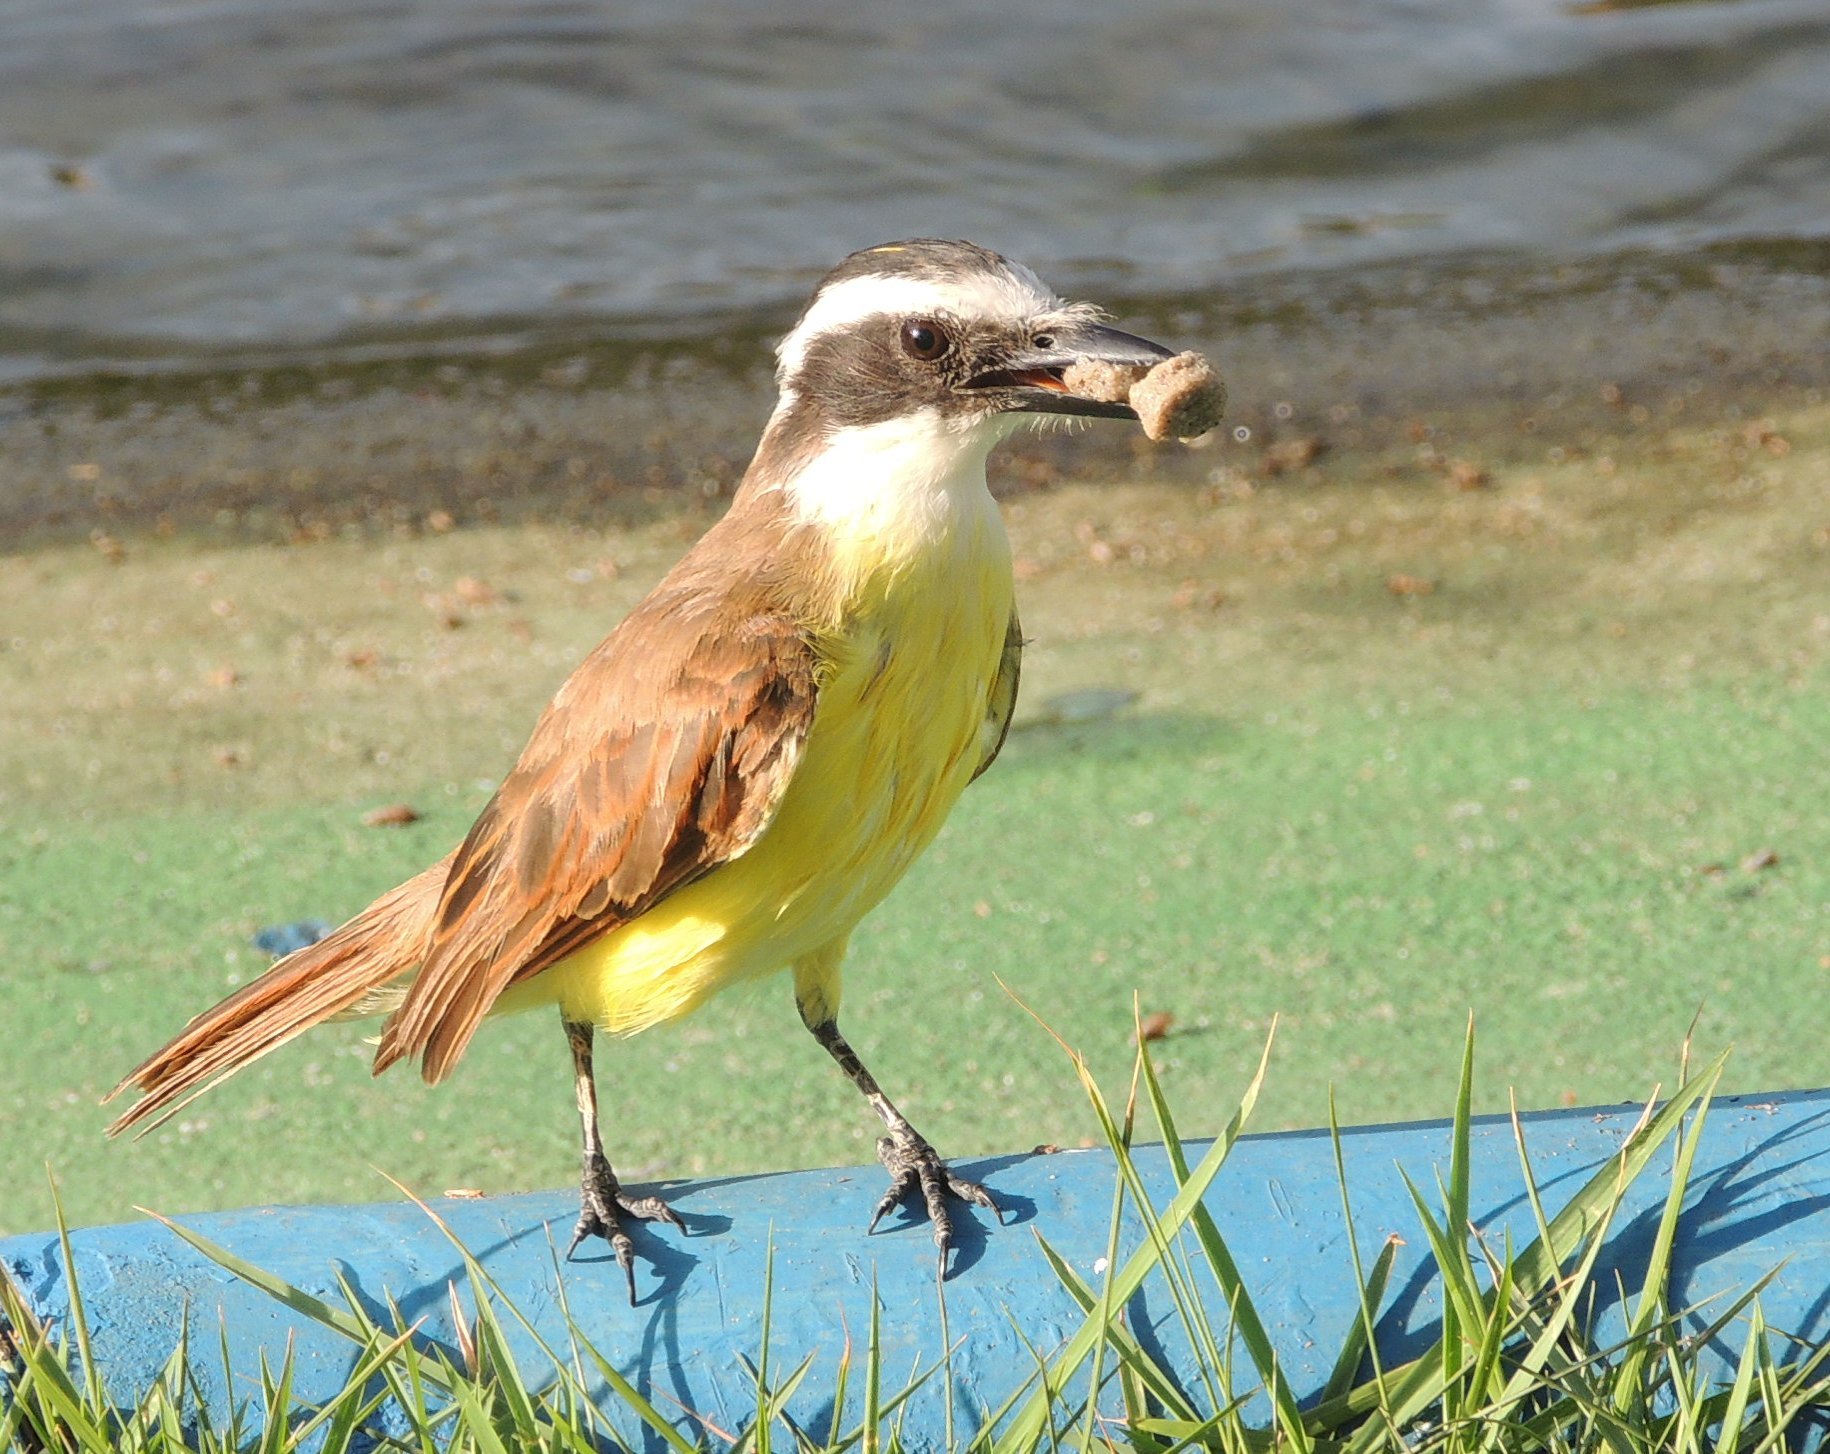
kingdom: Animalia
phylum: Chordata
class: Aves
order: Passeriformes
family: Tyrannidae
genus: Pitangus
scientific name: Pitangus sulphuratus
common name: Great kiskadee
